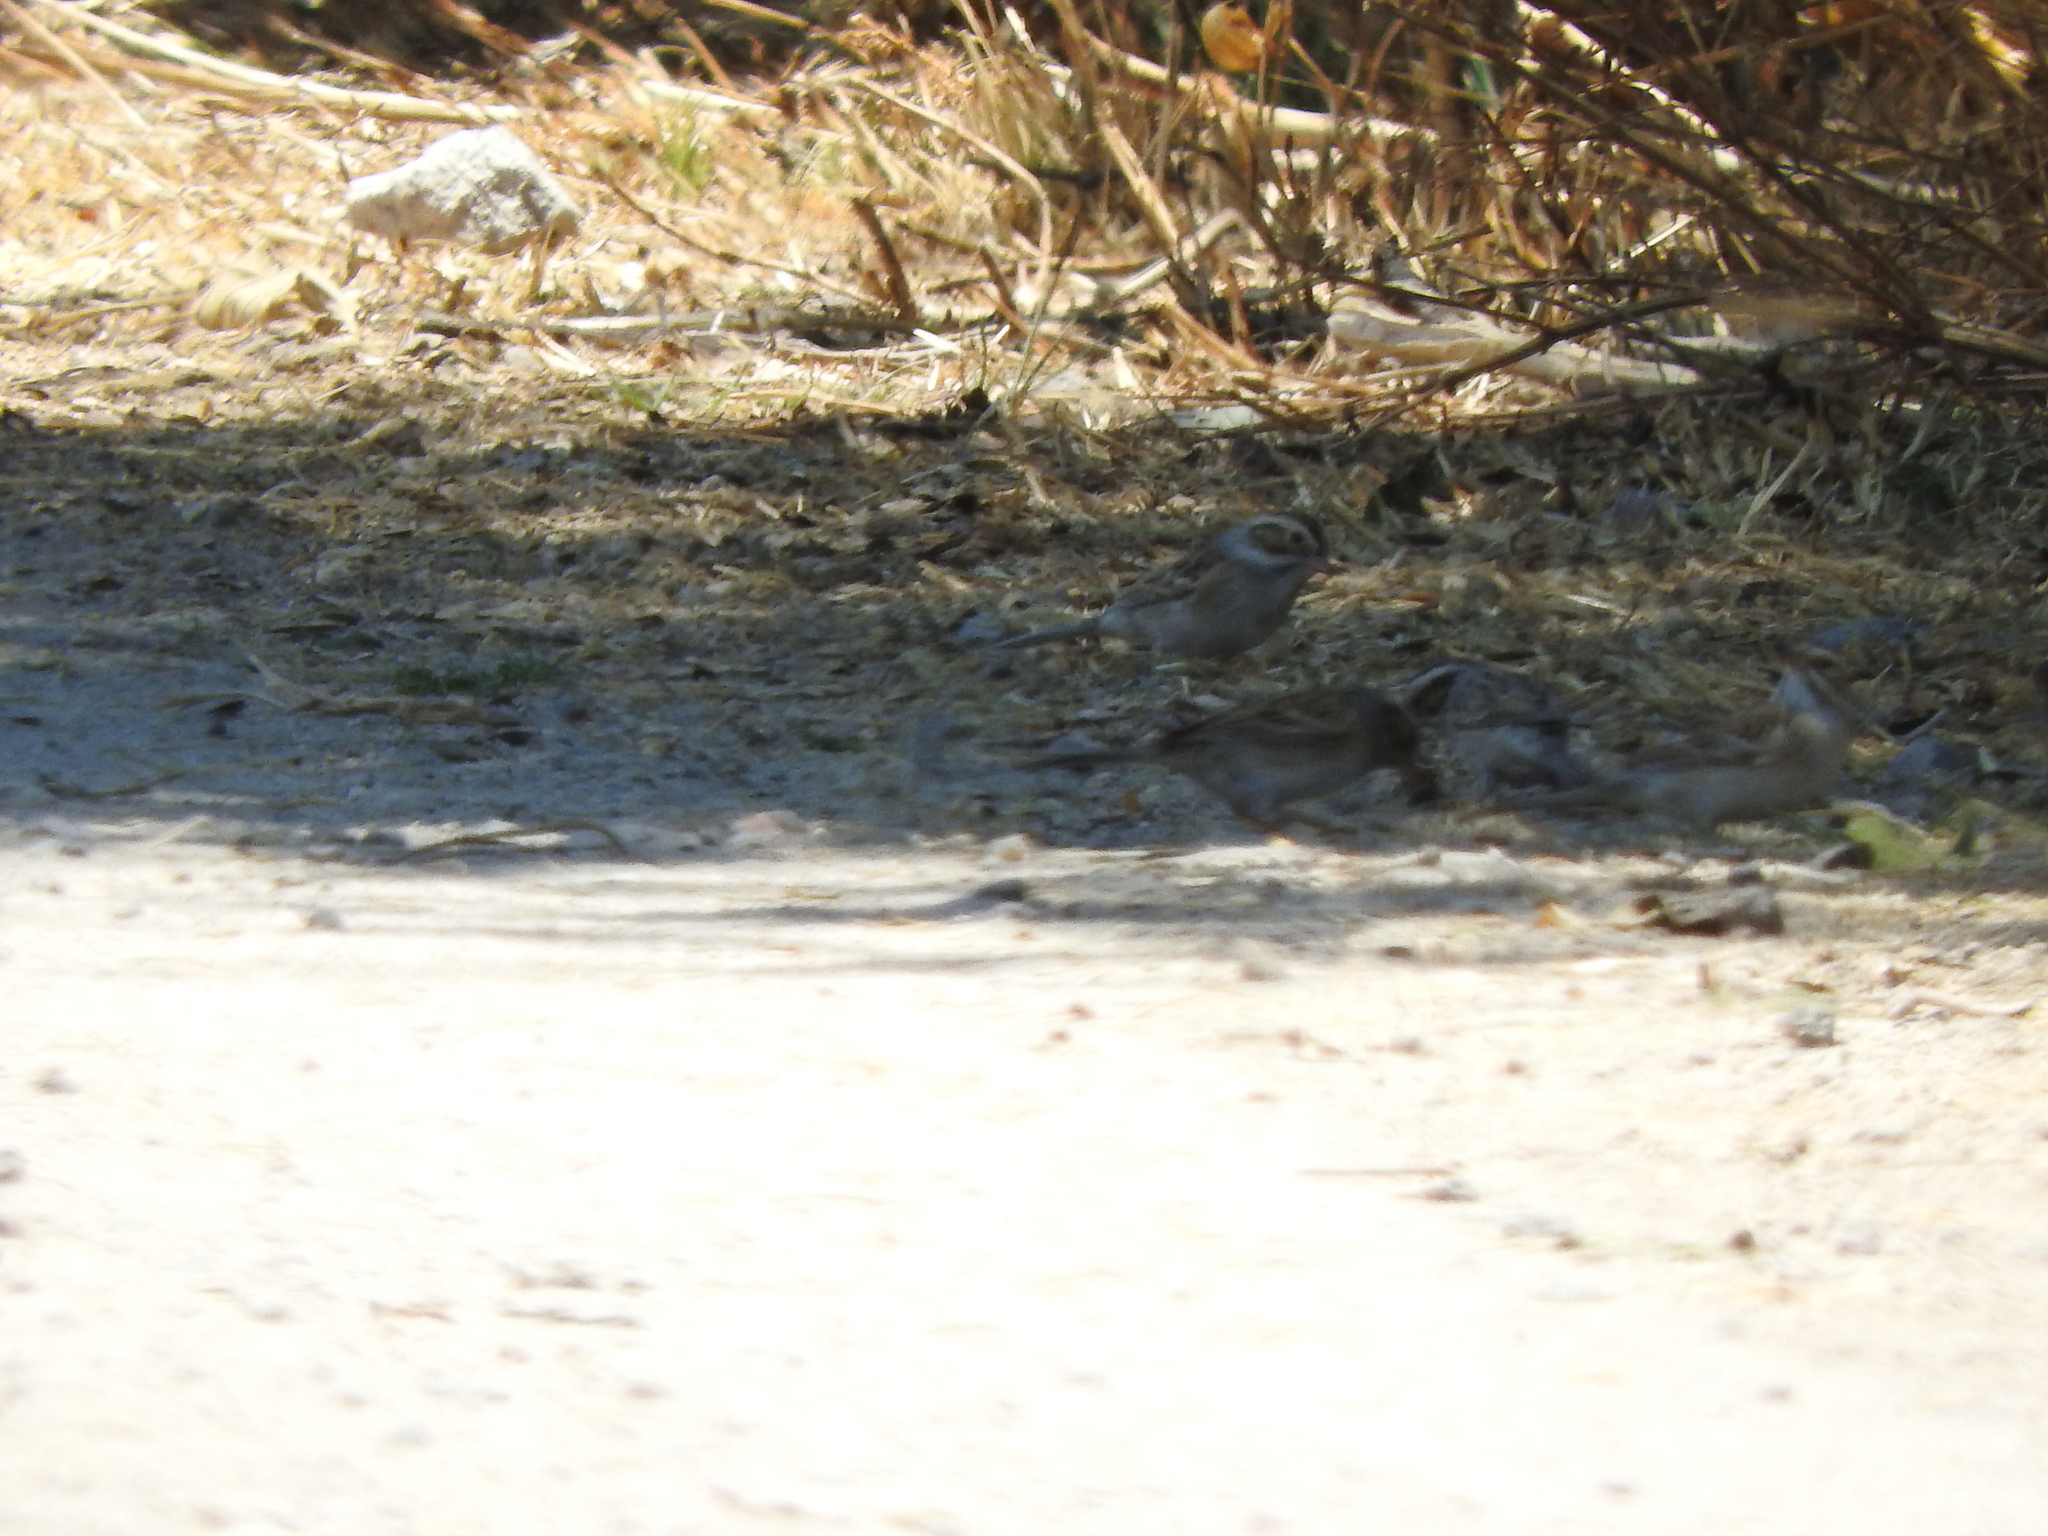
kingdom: Animalia
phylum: Chordata
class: Aves
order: Passeriformes
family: Passerellidae
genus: Spizella
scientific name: Spizella pallida
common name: Clay-colored sparrow
